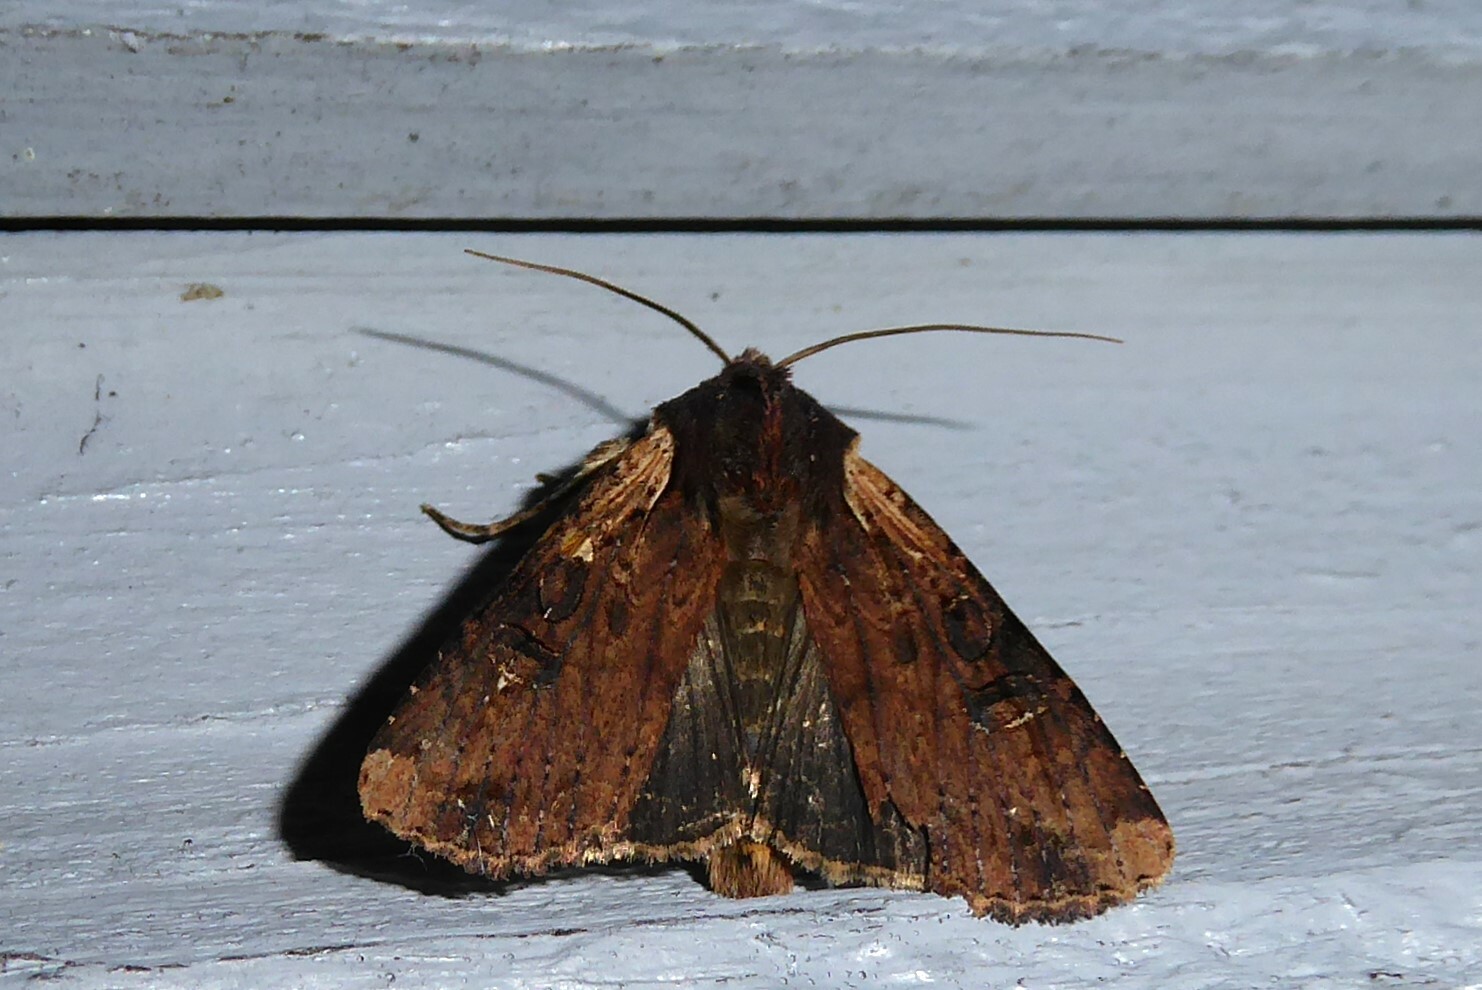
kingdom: Animalia
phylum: Arthropoda
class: Insecta
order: Lepidoptera
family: Noctuidae
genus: Ichneutica
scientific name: Ichneutica omoplaca
